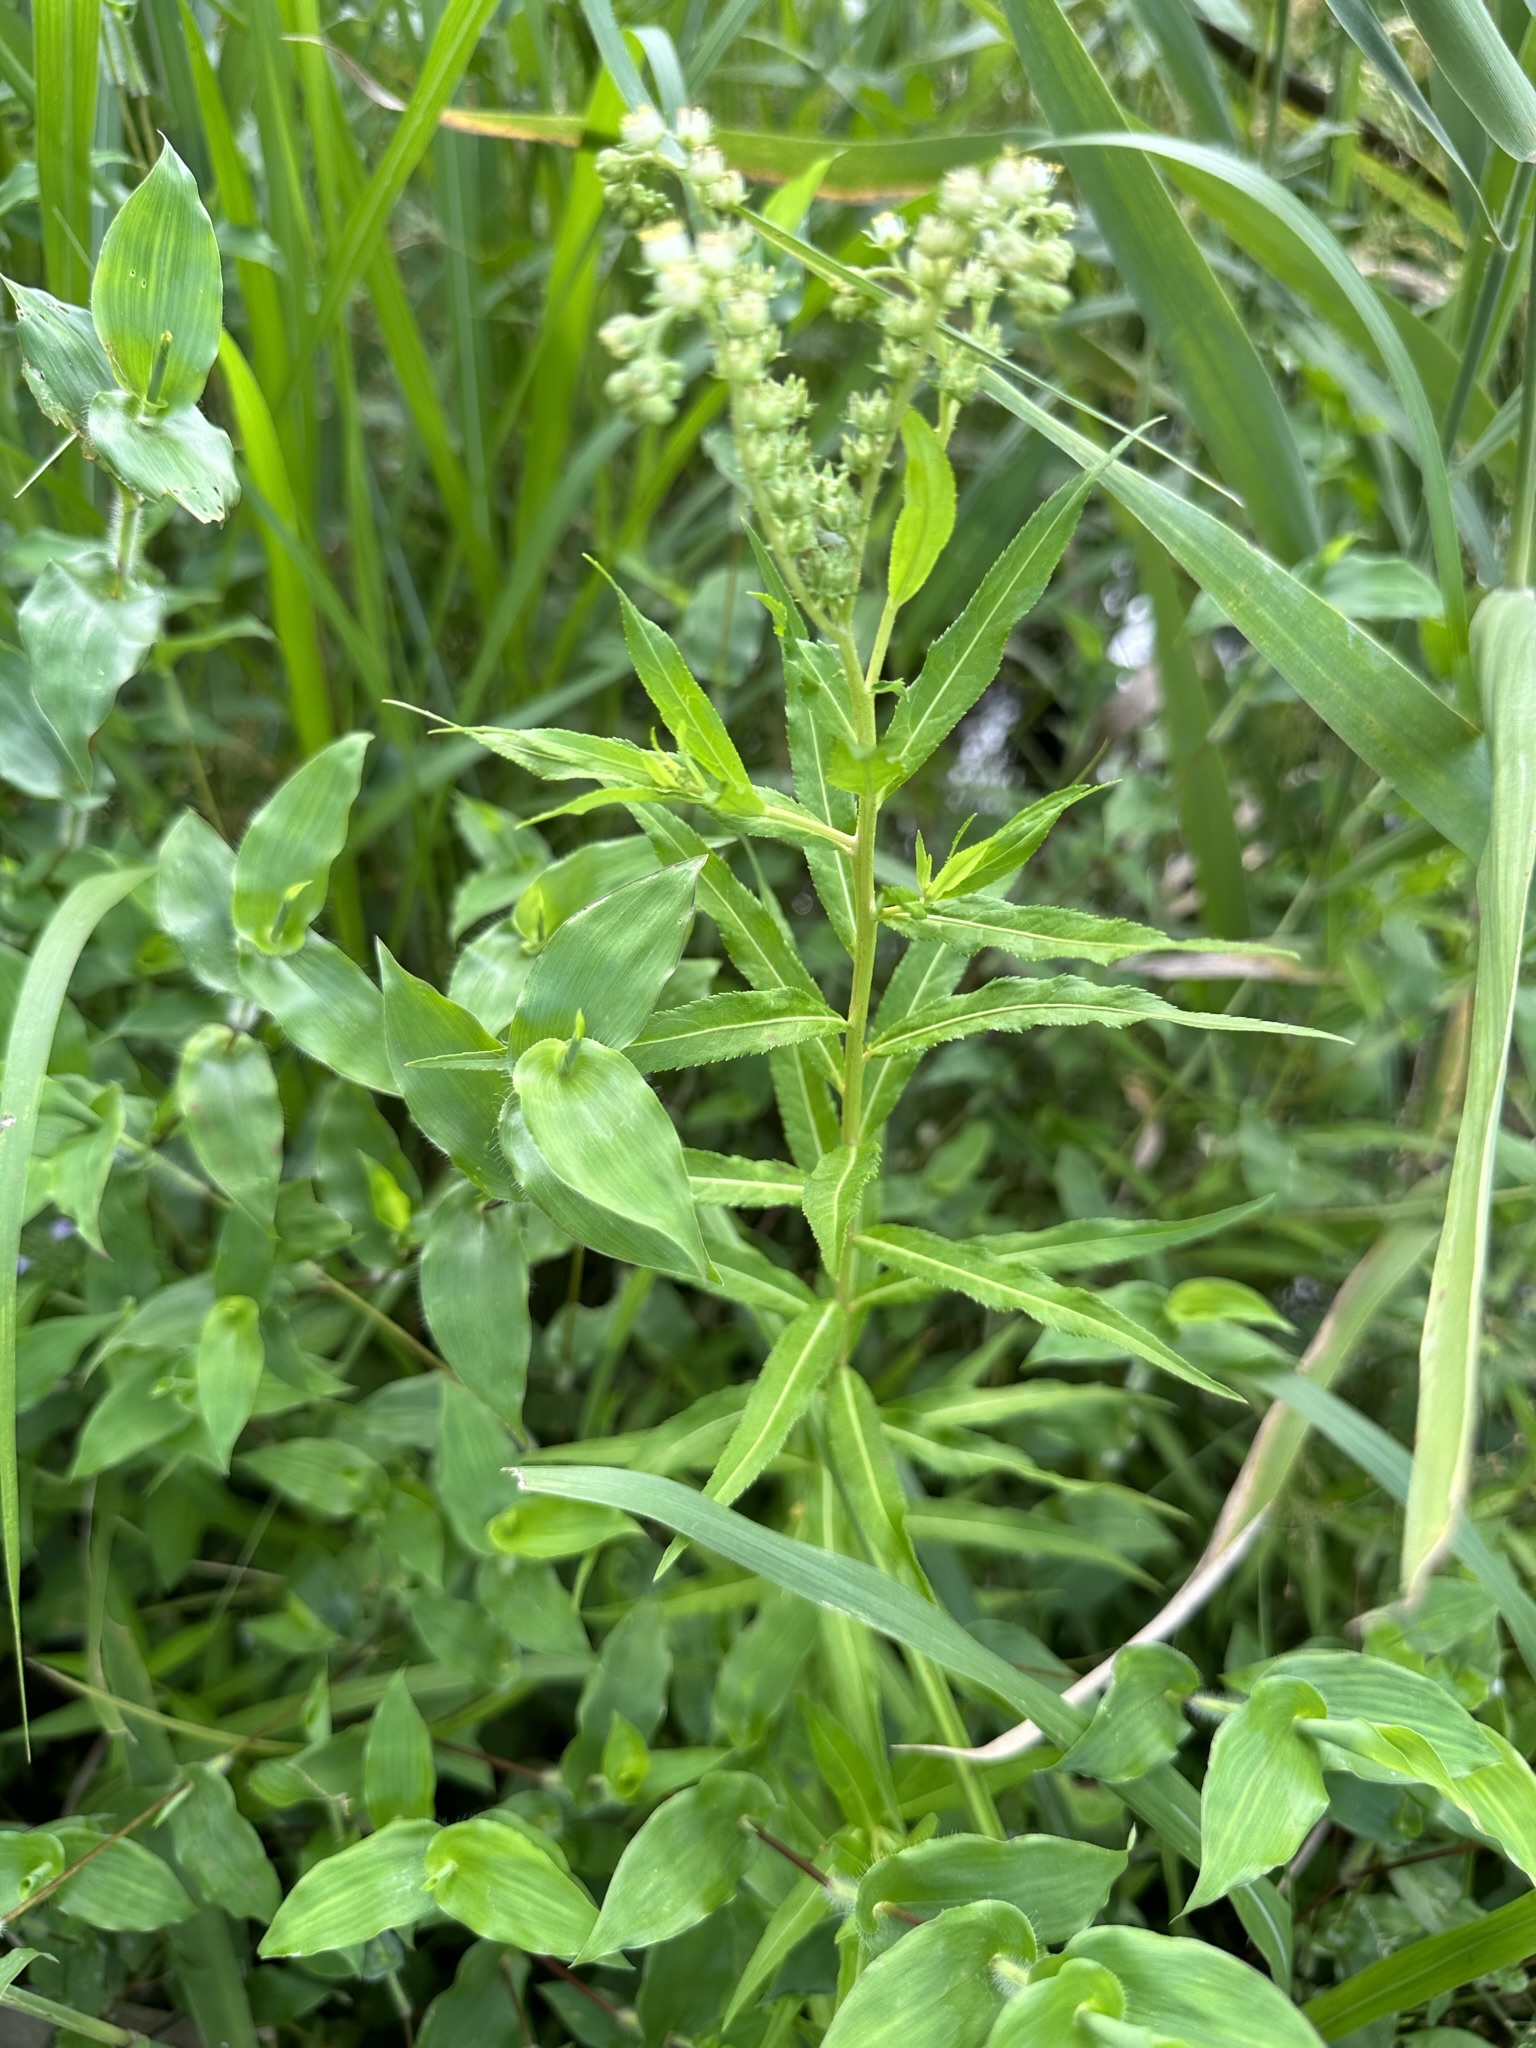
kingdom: Plantae
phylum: Tracheophyta
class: Magnoliopsida
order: Saxifragales
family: Penthoraceae
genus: Penthorum
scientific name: Penthorum chinense
